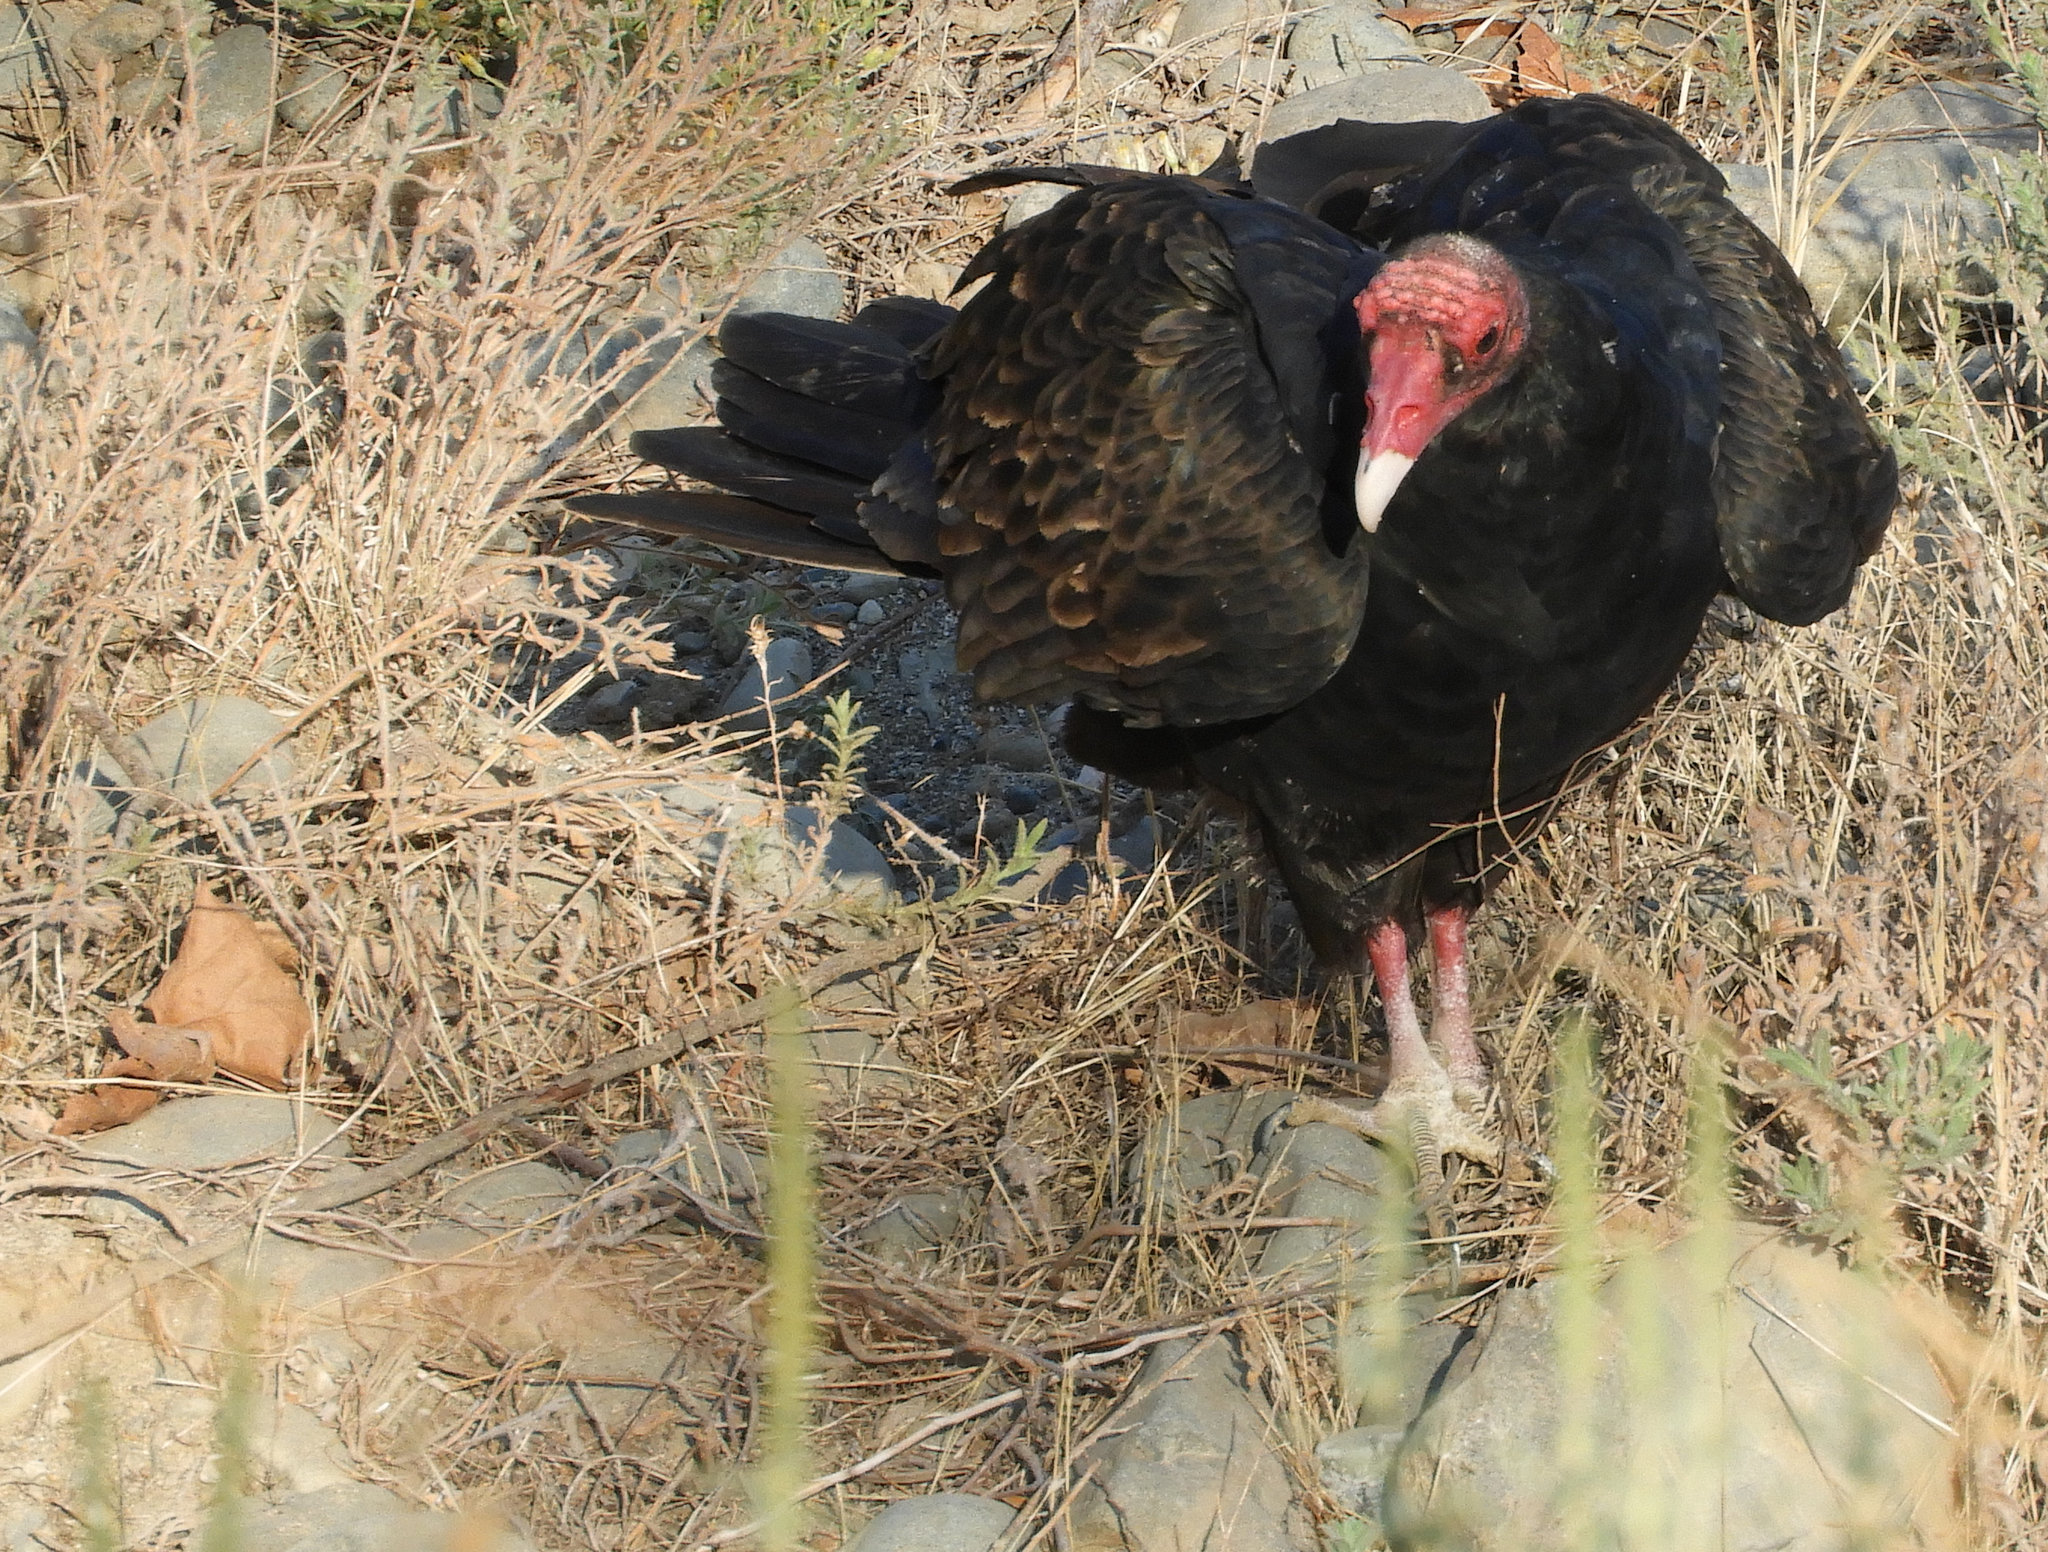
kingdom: Animalia
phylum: Chordata
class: Aves
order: Accipitriformes
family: Cathartidae
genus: Cathartes
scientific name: Cathartes aura
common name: Turkey vulture
